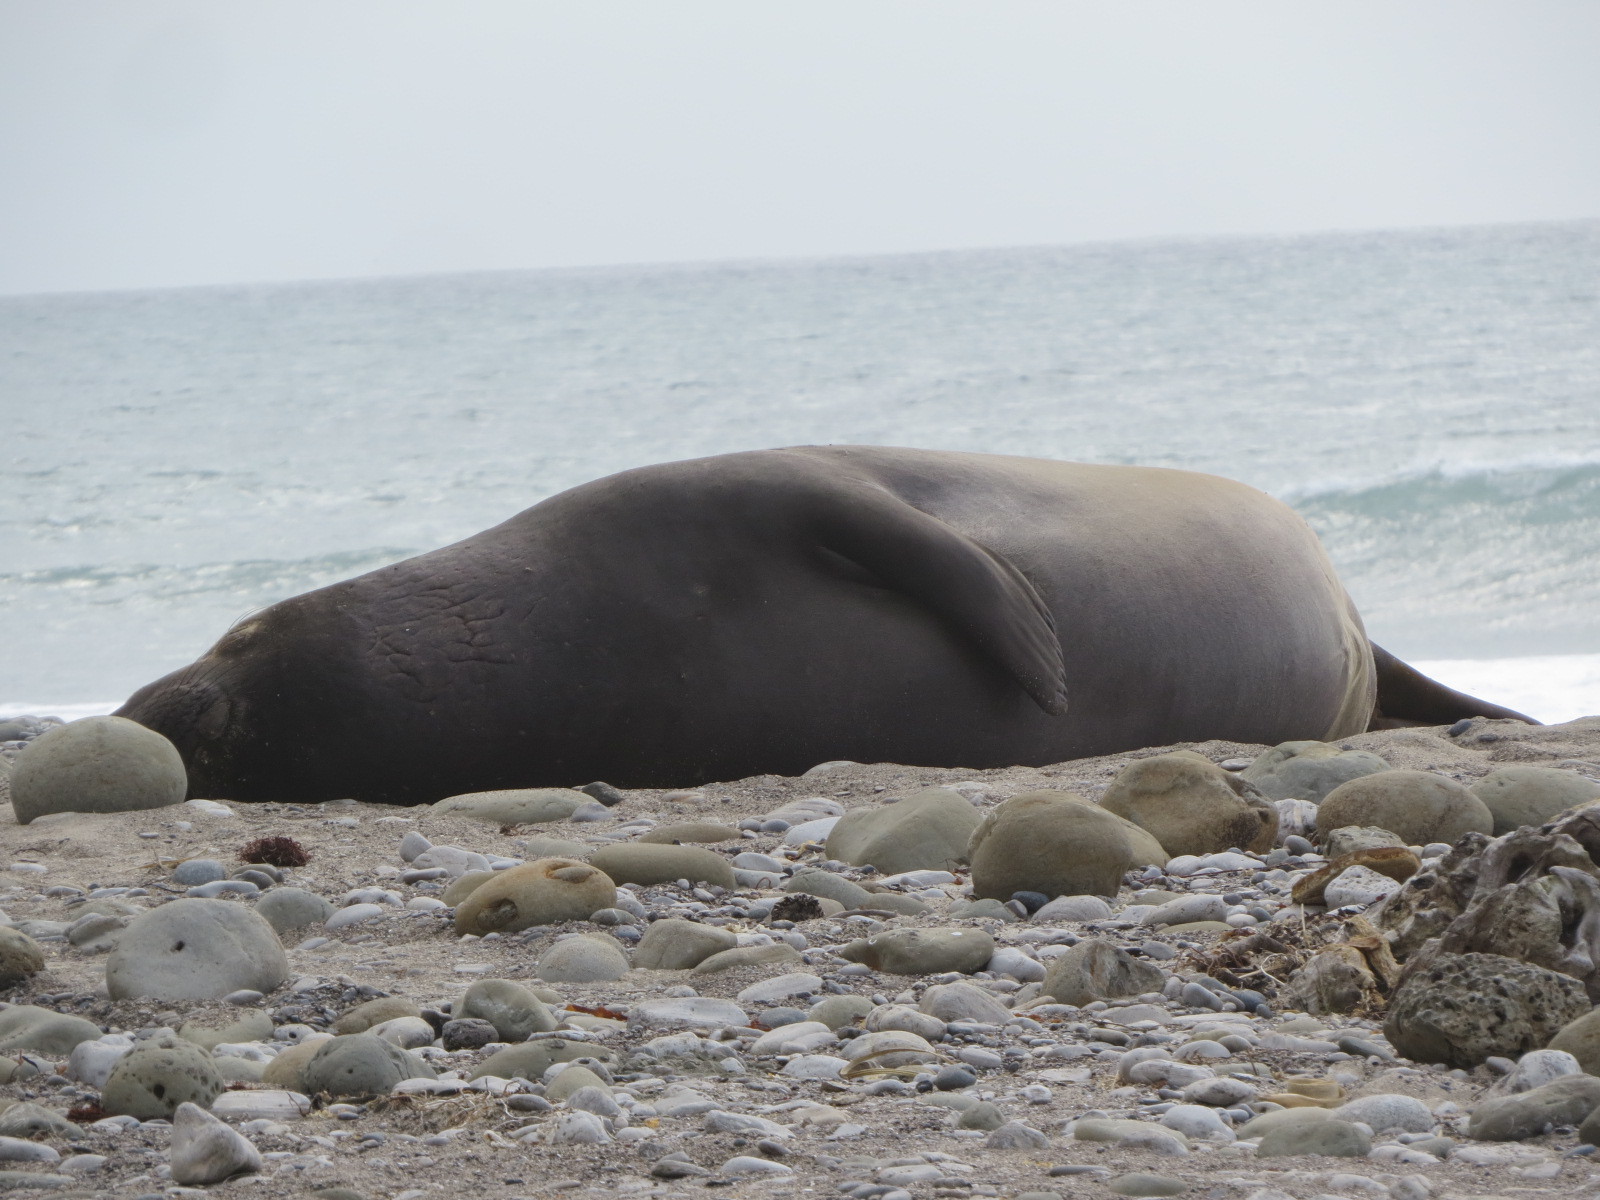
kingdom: Animalia
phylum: Chordata
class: Mammalia
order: Carnivora
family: Phocidae
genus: Mirounga
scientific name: Mirounga angustirostris
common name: Northern elephant seal
